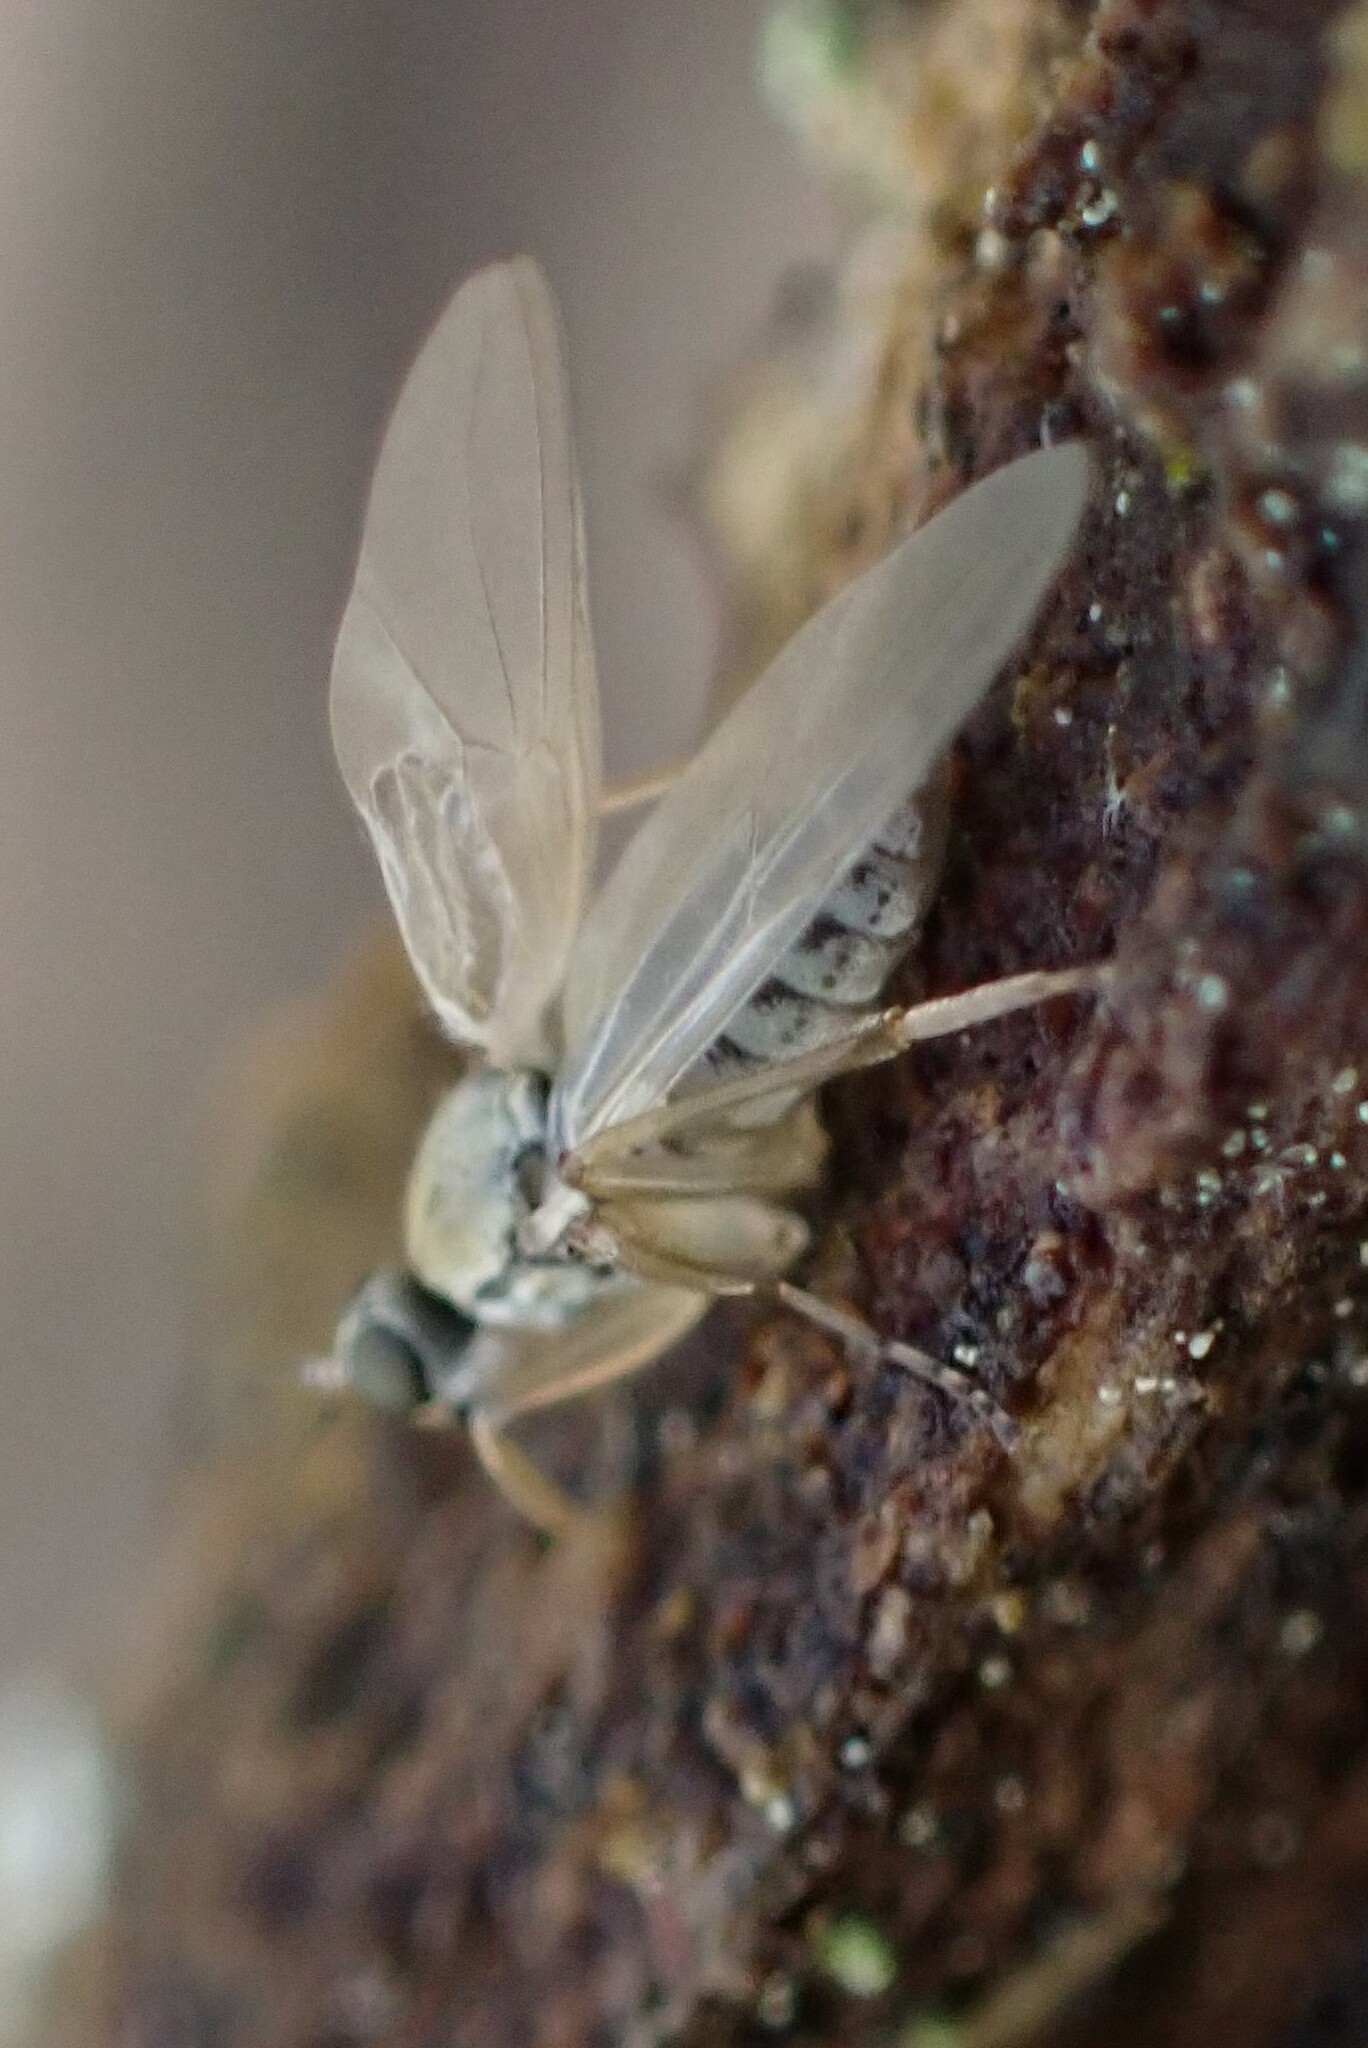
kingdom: Animalia
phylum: Arthropoda
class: Insecta
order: Diptera
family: Hybotidae
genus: Platypalpus
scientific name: Platypalpus
